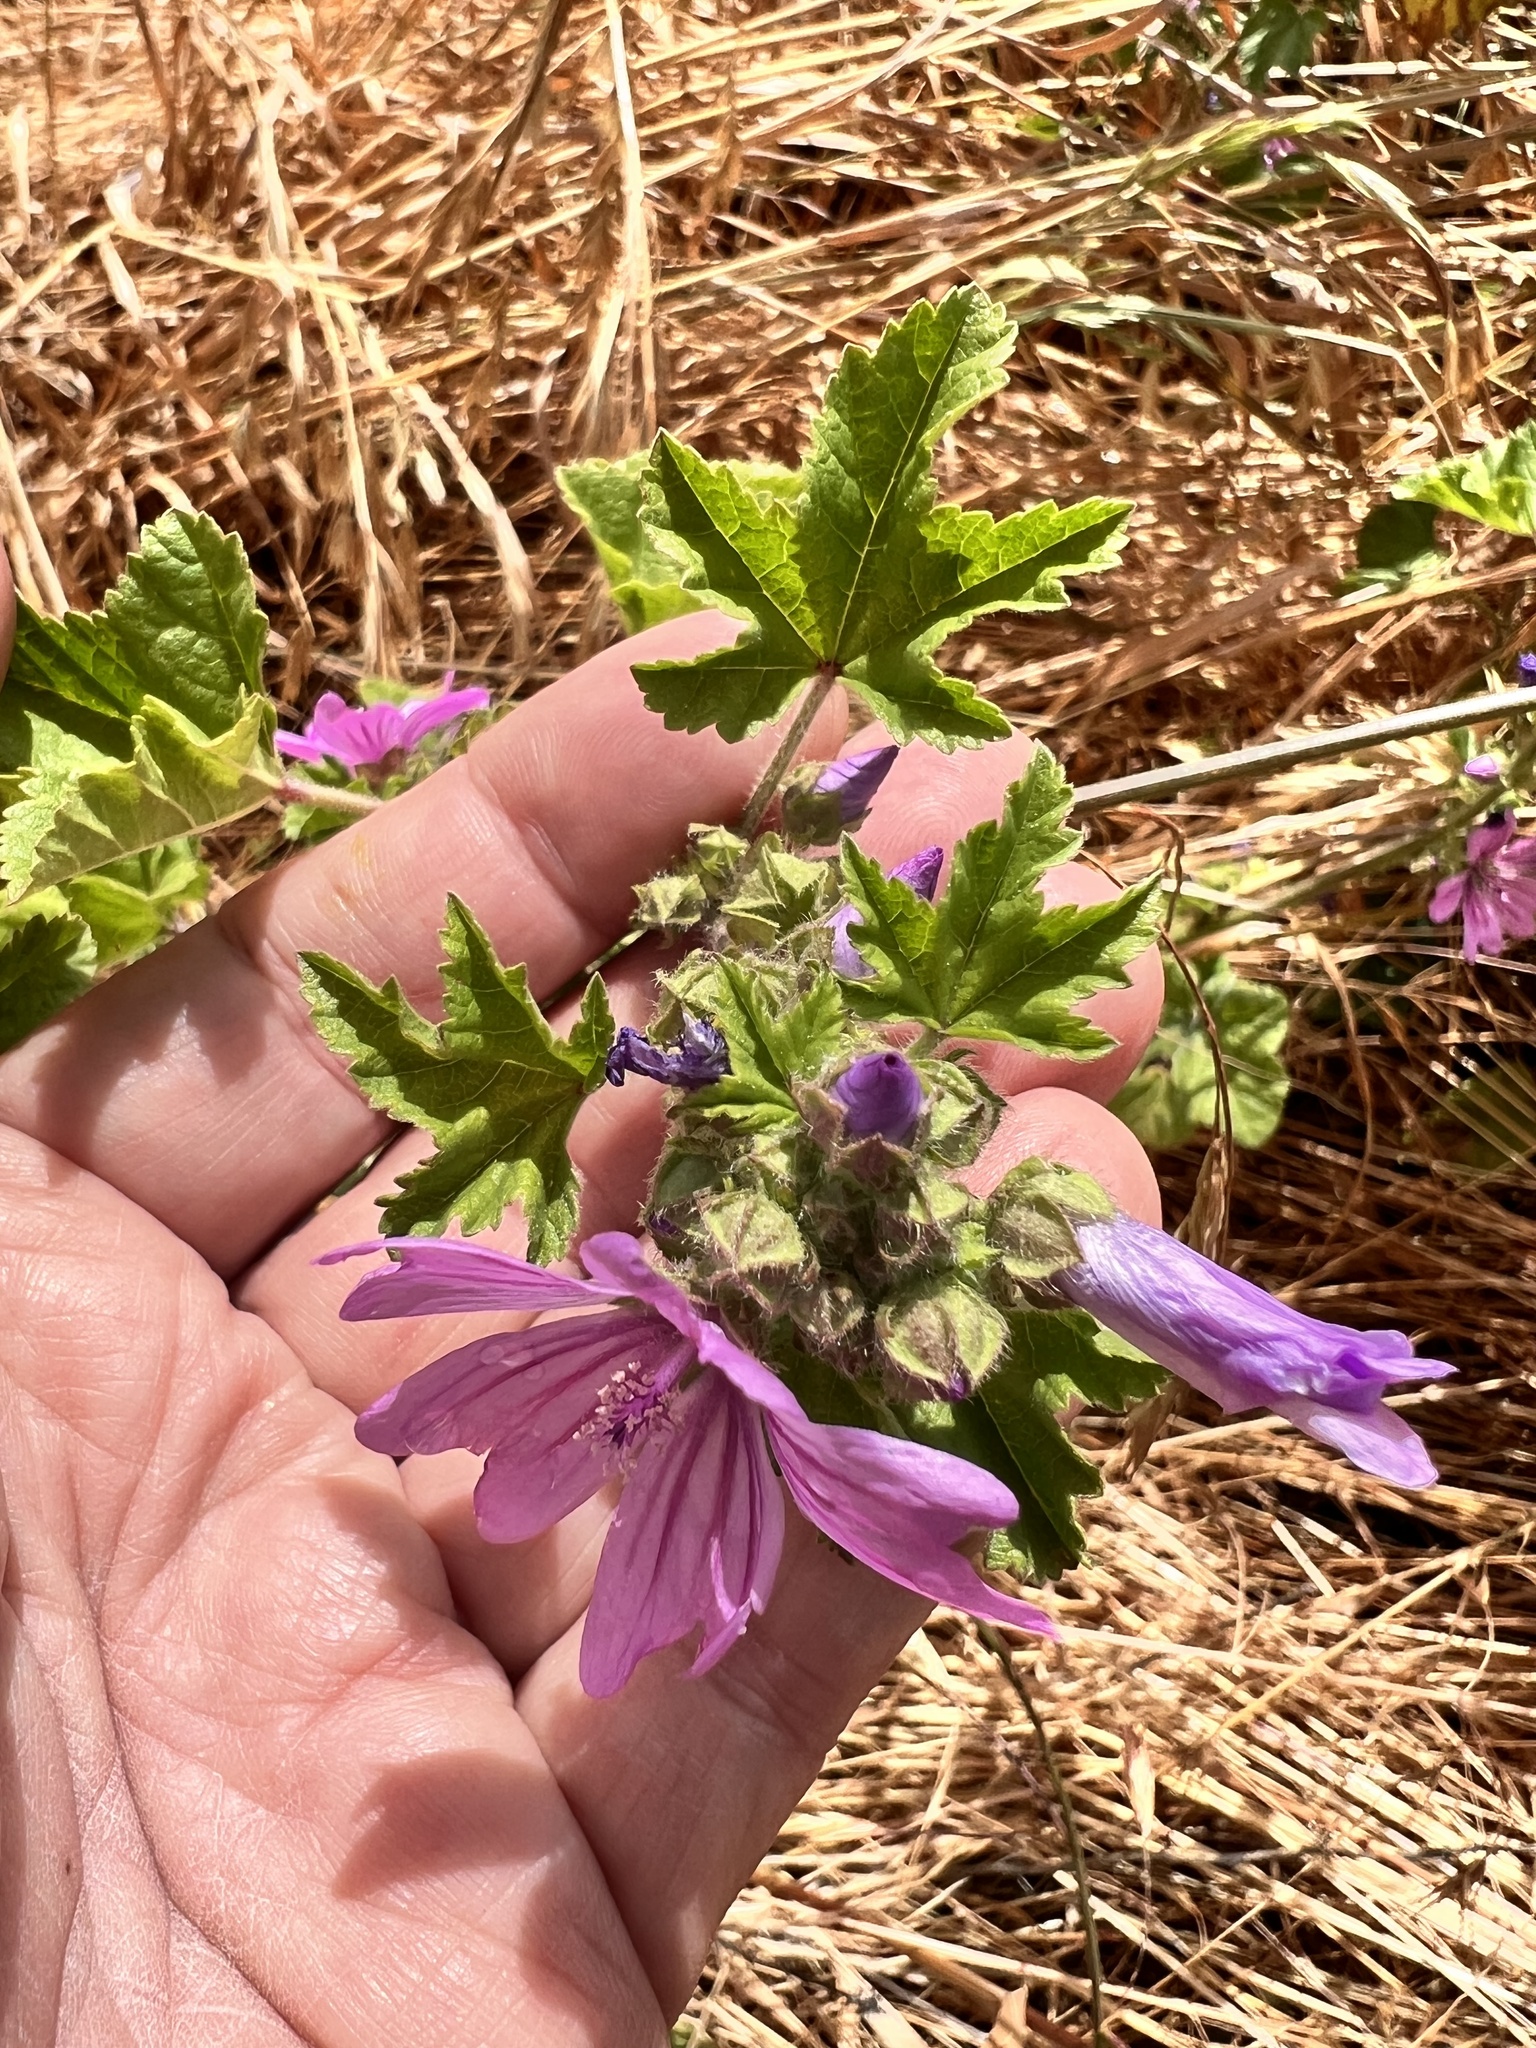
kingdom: Plantae
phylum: Tracheophyta
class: Magnoliopsida
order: Malvales
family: Malvaceae
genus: Malva
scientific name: Malva sylvestris
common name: Common mallow
